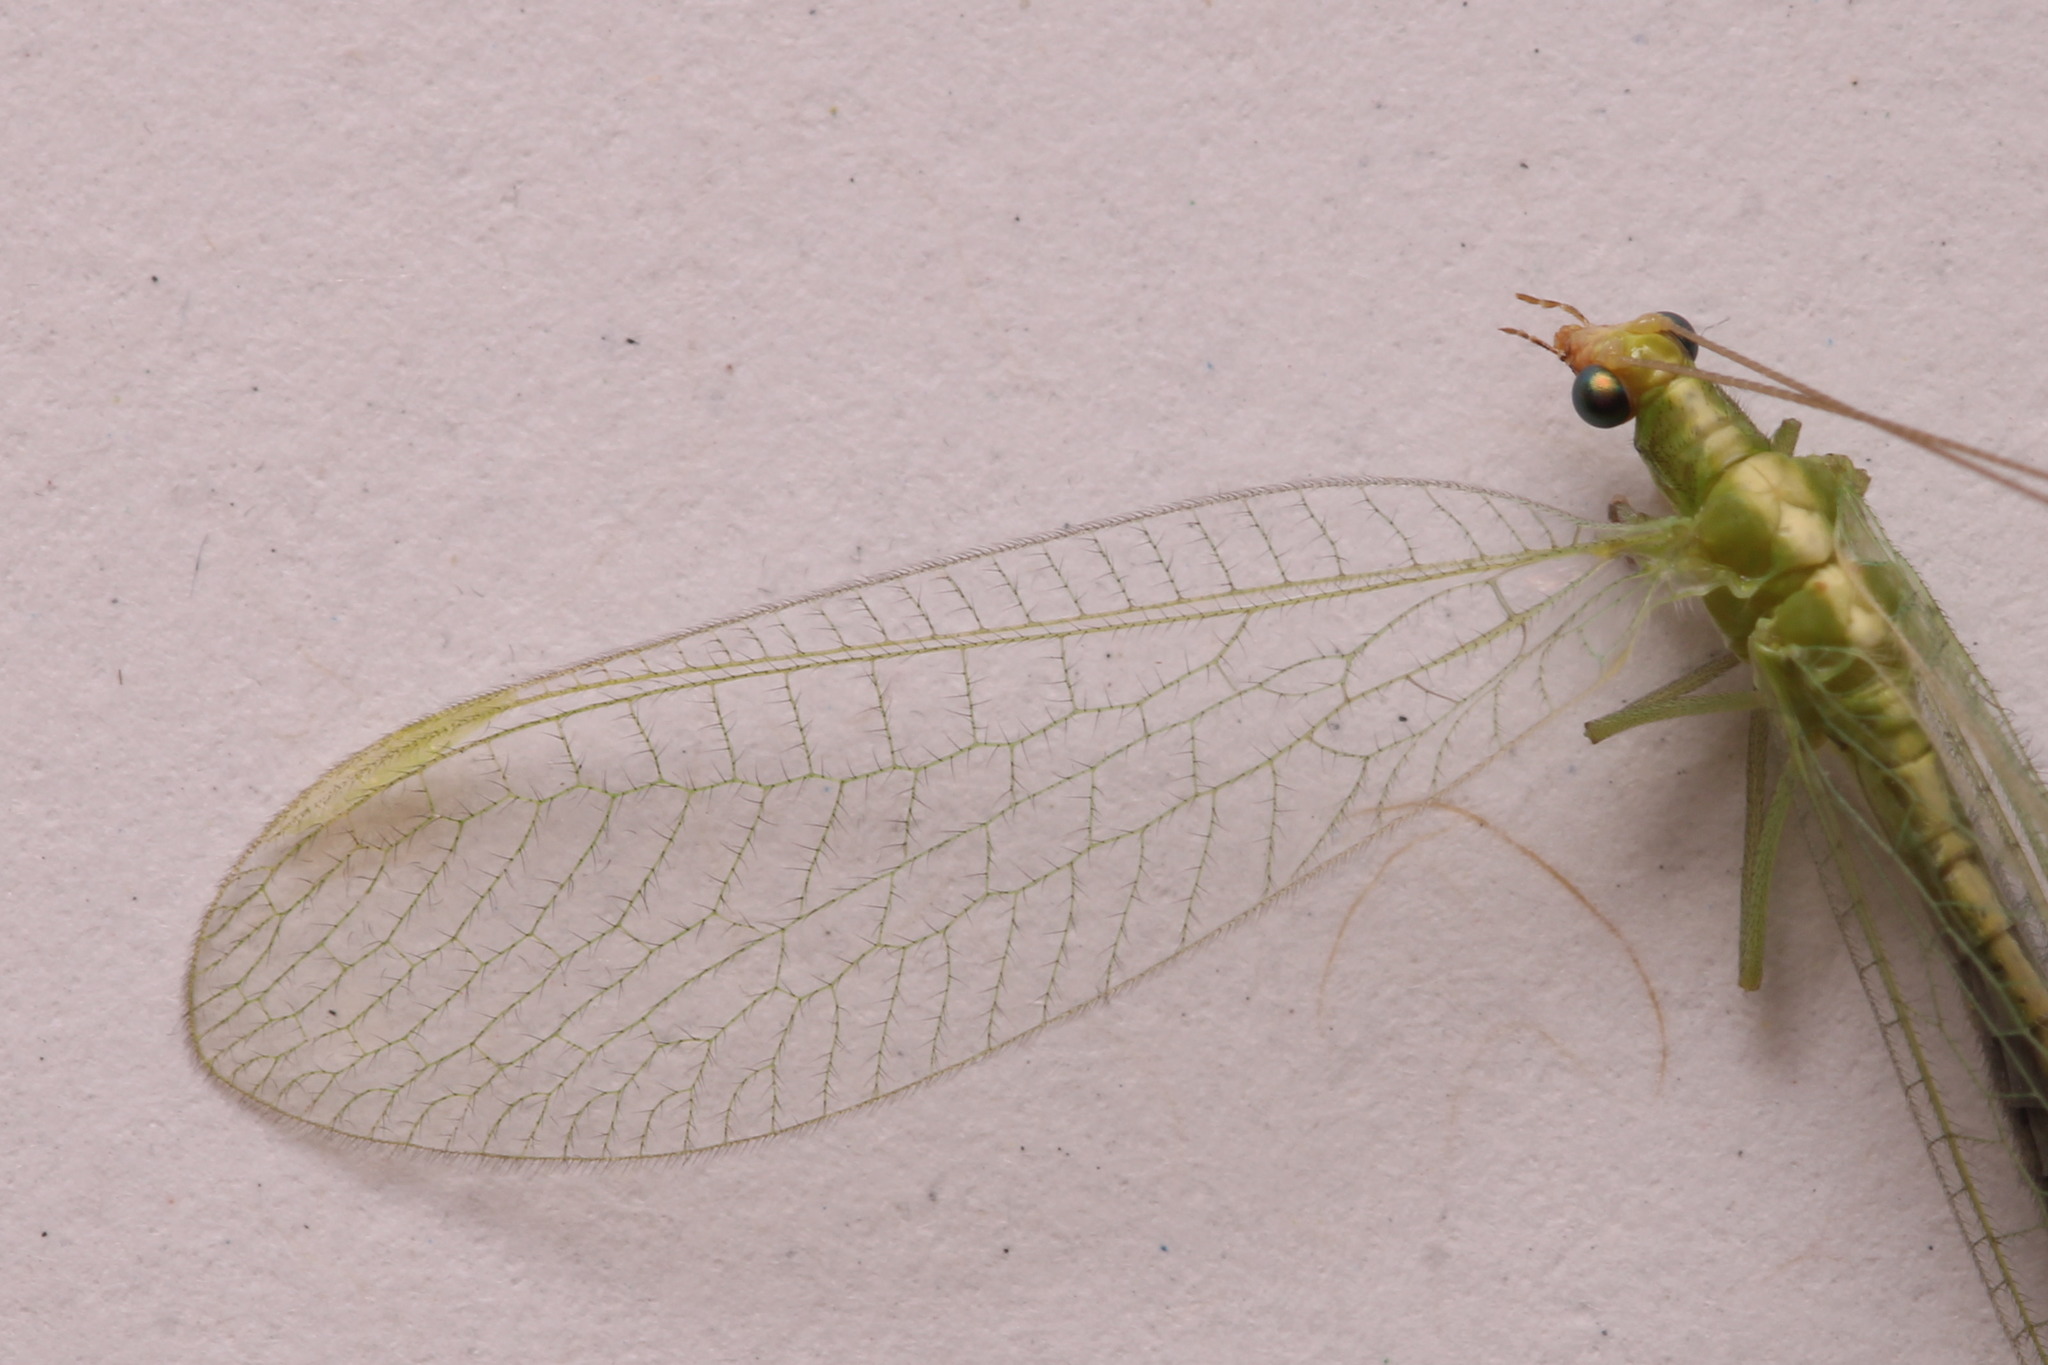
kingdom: Animalia
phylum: Arthropoda
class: Insecta
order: Neuroptera
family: Chrysopidae
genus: Chrysoperla
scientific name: Chrysoperla
